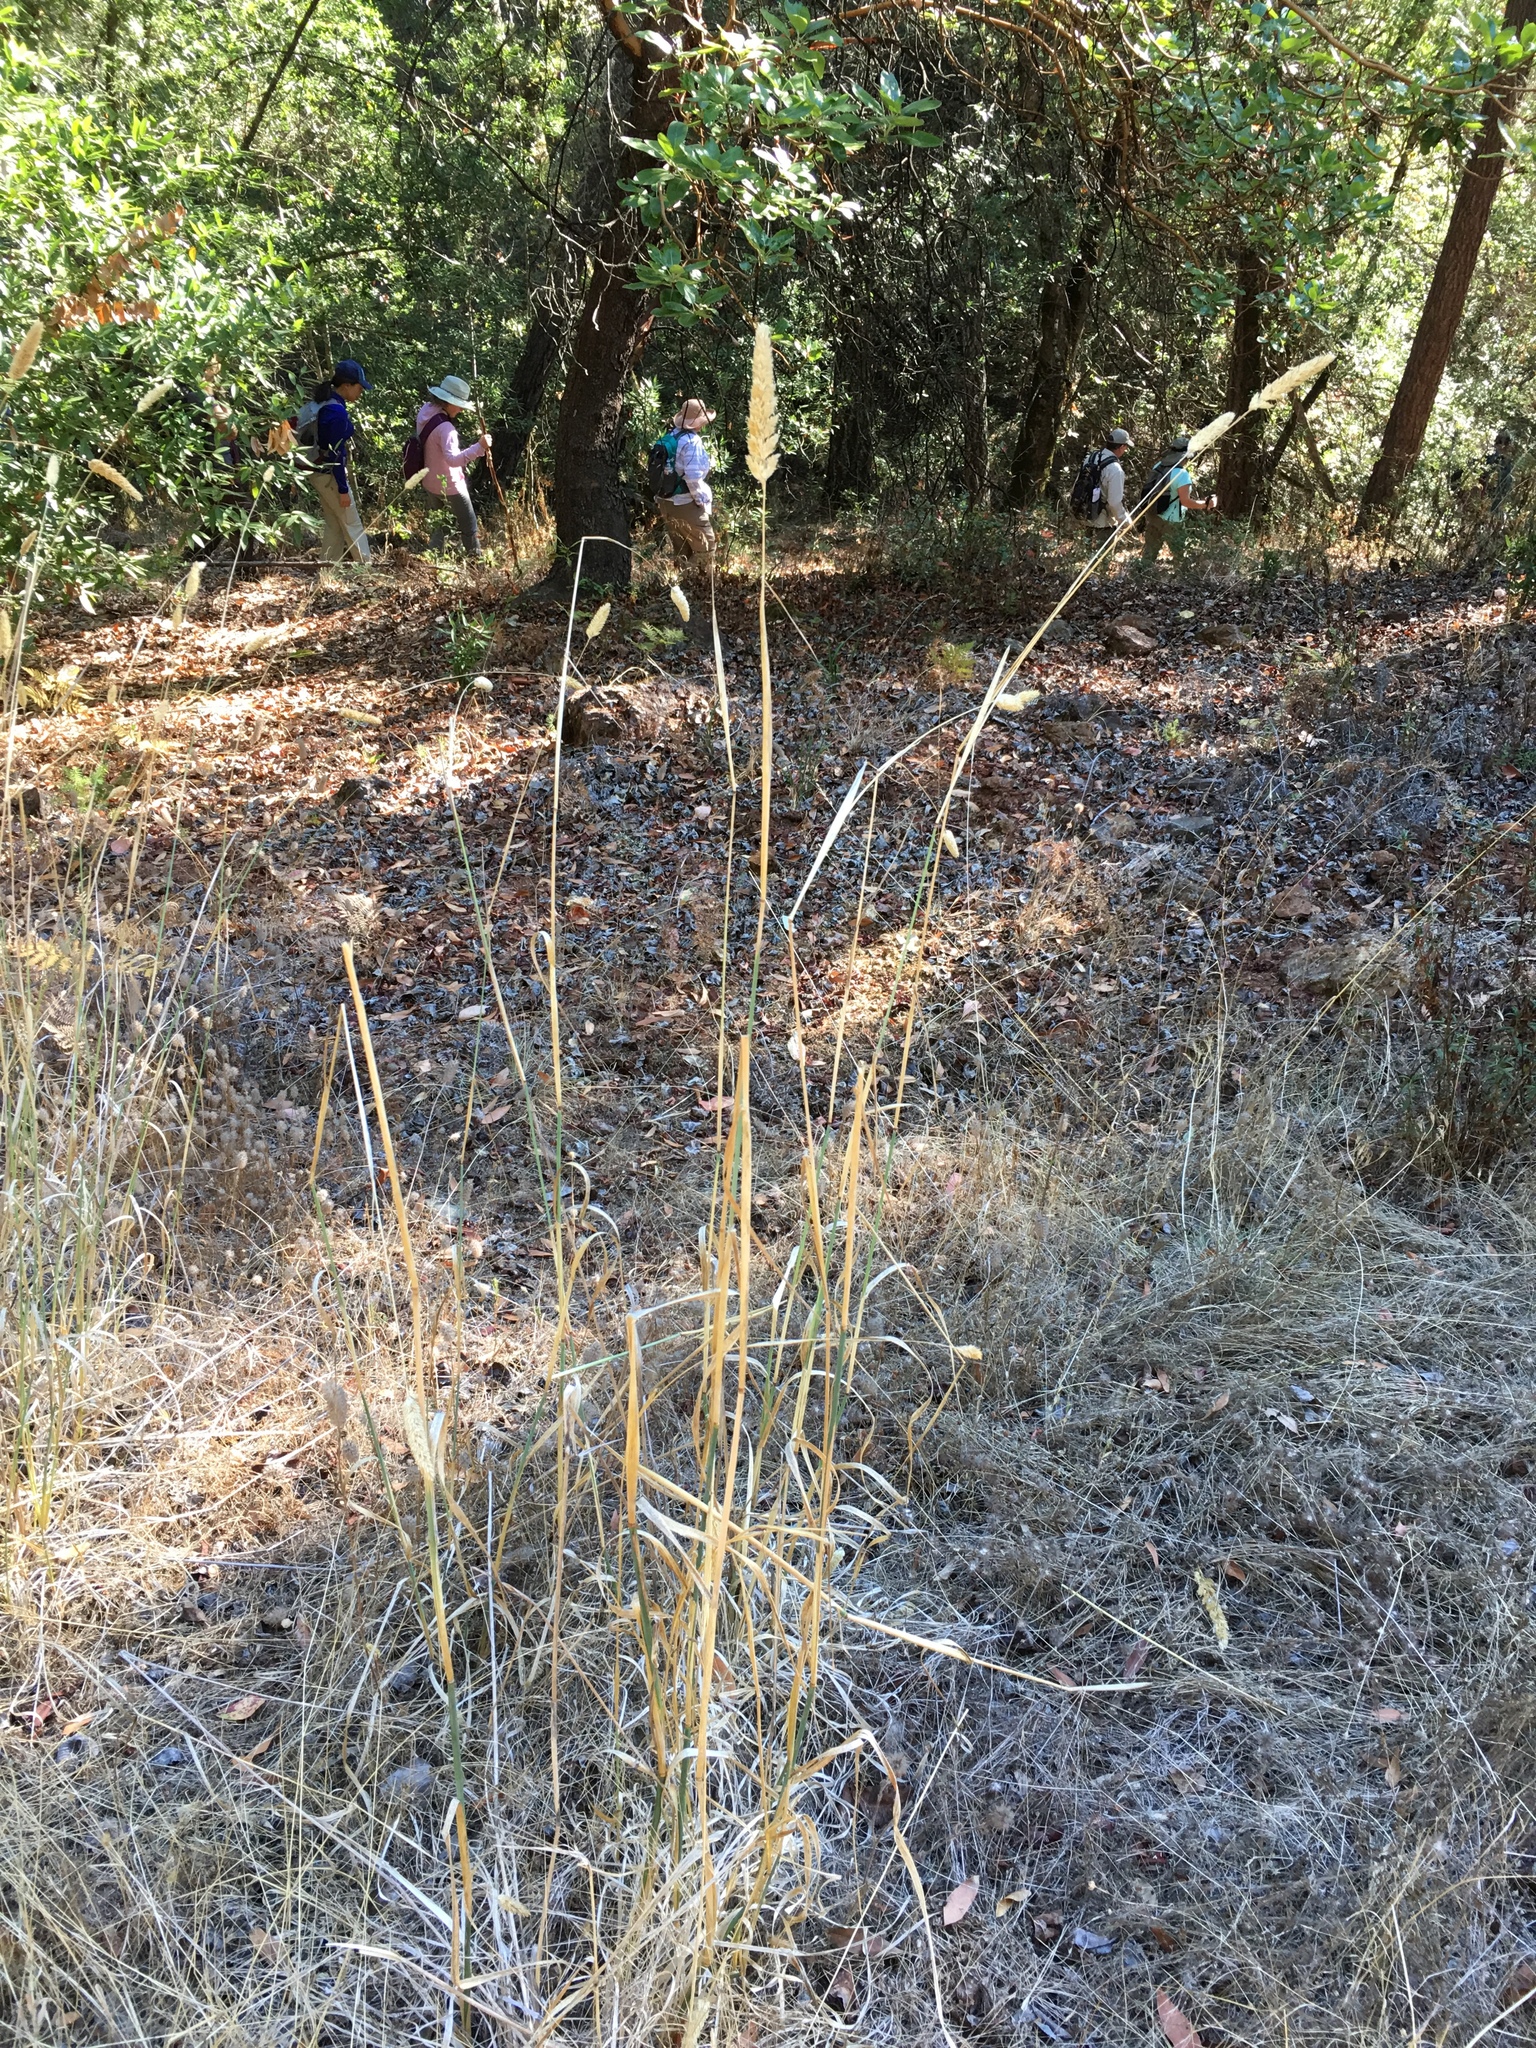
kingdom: Plantae
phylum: Tracheophyta
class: Liliopsida
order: Poales
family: Poaceae
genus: Phalaris
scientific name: Phalaris aquatica
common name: Bulbous canary-grass
